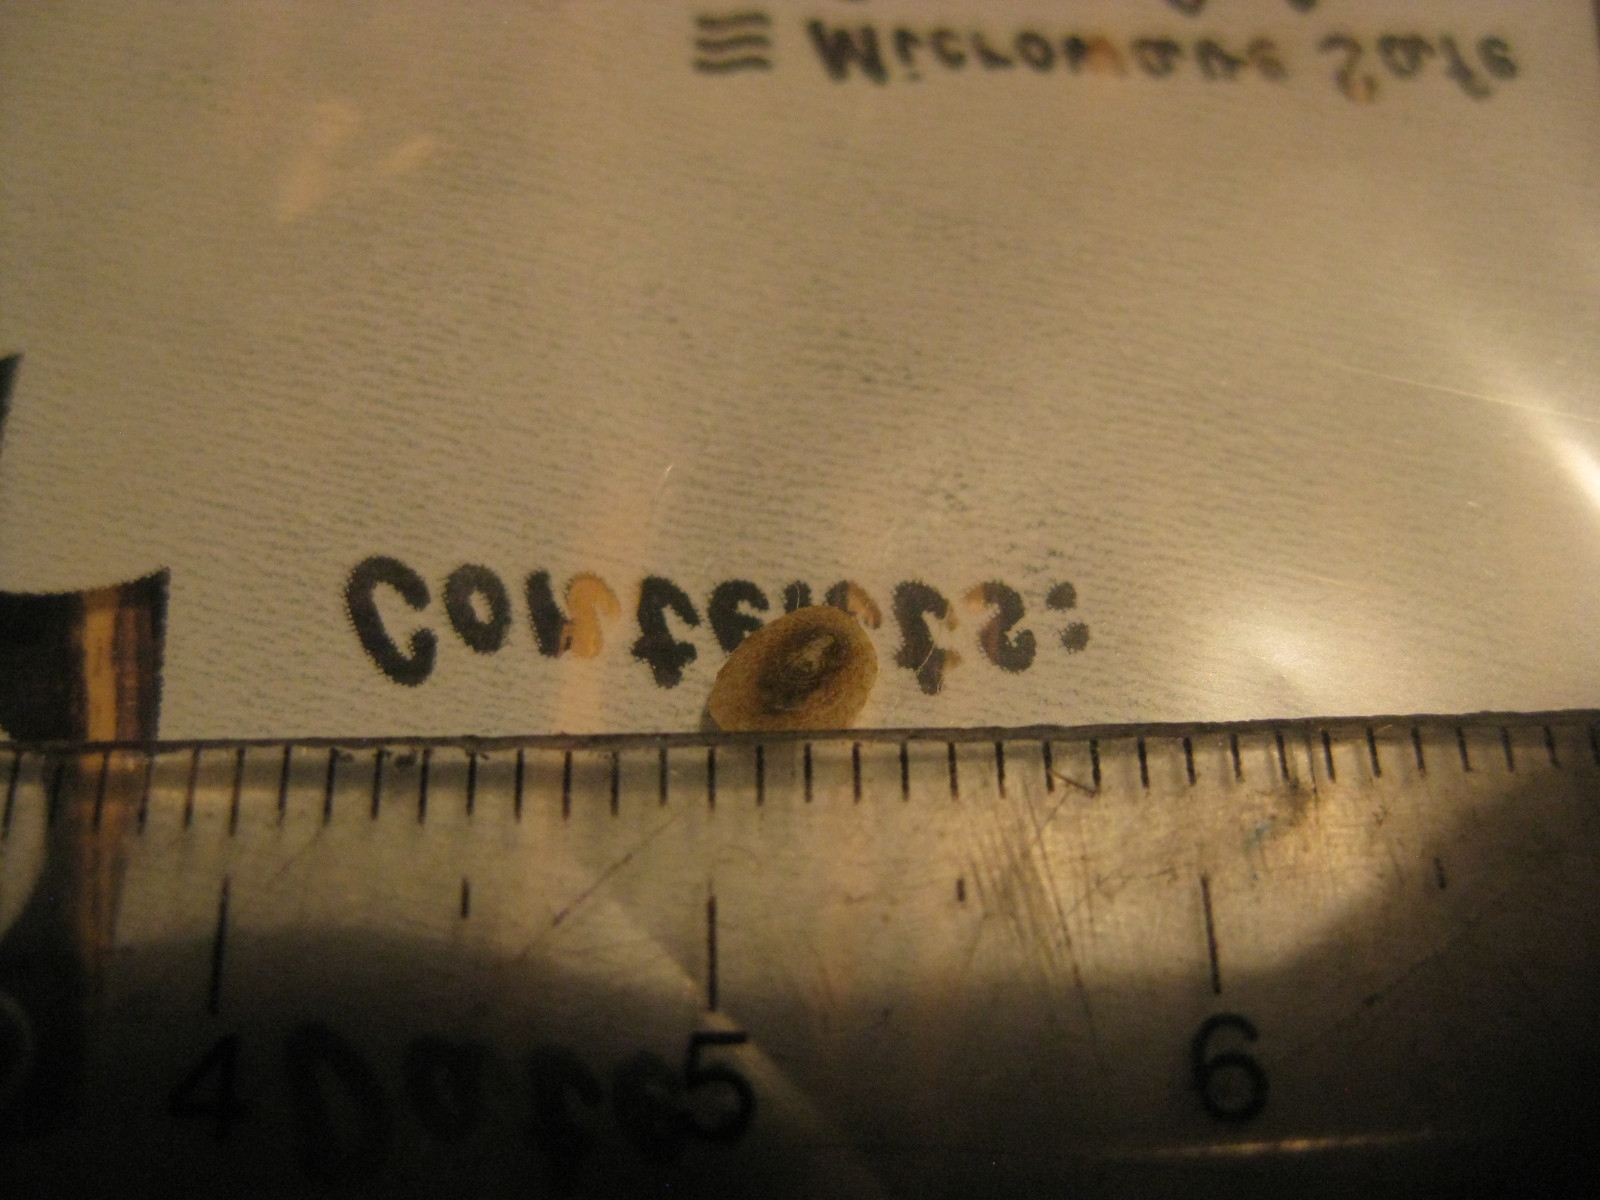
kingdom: Animalia
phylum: Mollusca
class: Gastropoda
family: Lottiidae
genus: Notoacmea
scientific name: Notoacmea elongata
